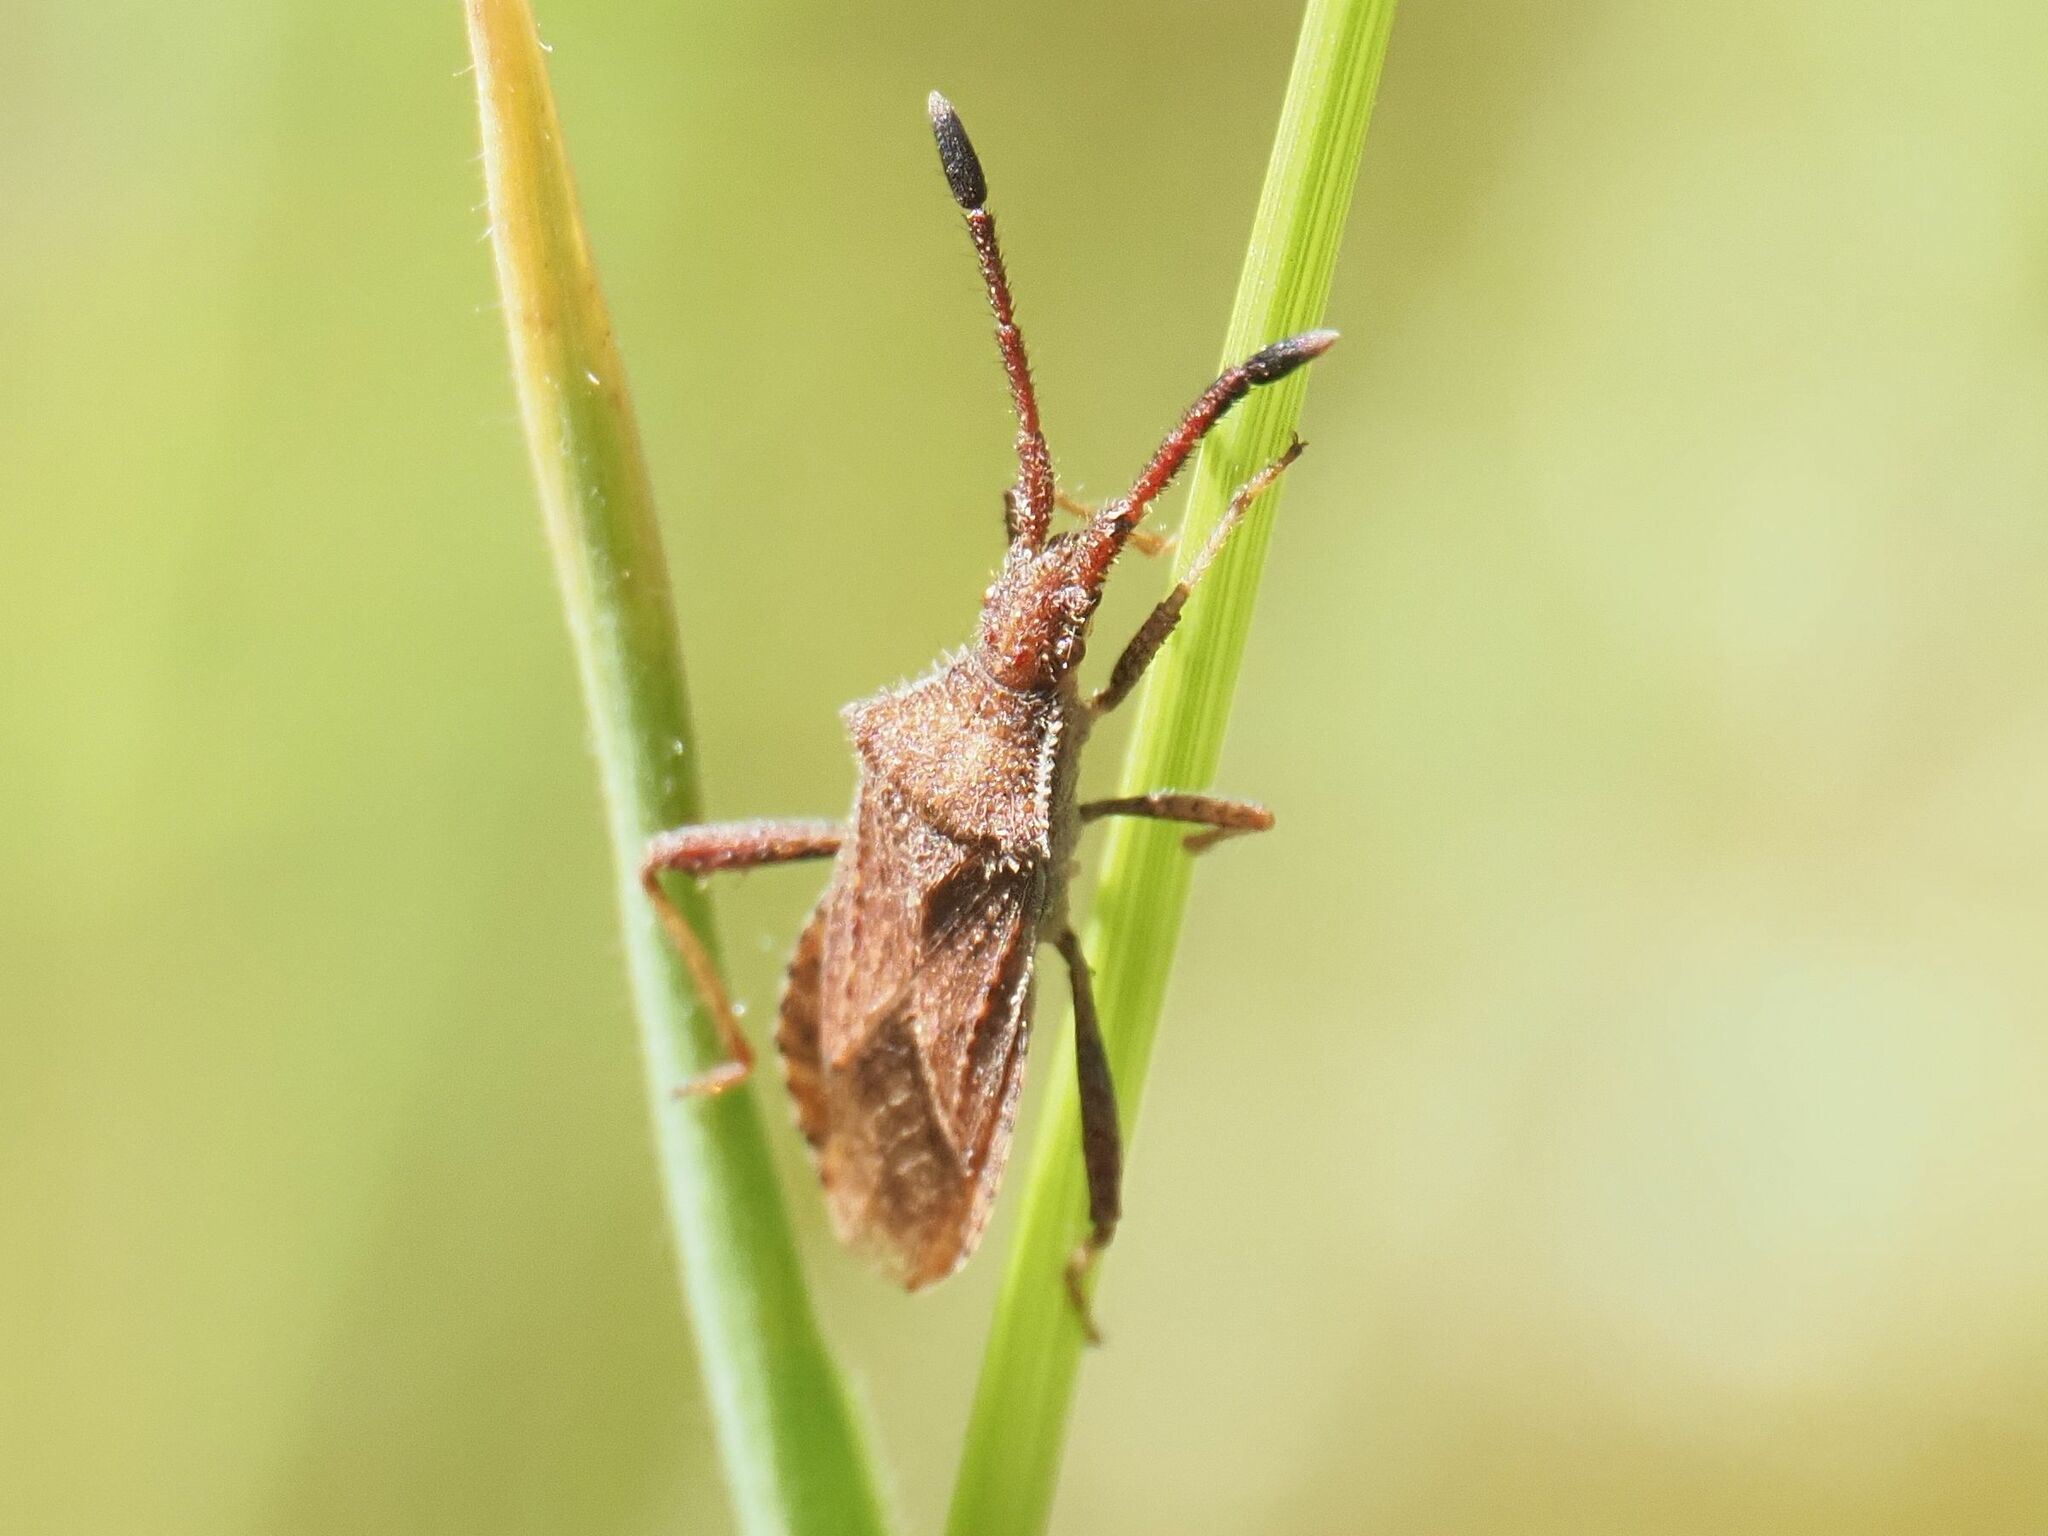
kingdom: Animalia
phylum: Arthropoda
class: Insecta
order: Hemiptera
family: Coreidae
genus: Coriomeris
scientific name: Coriomeris denticulatus
